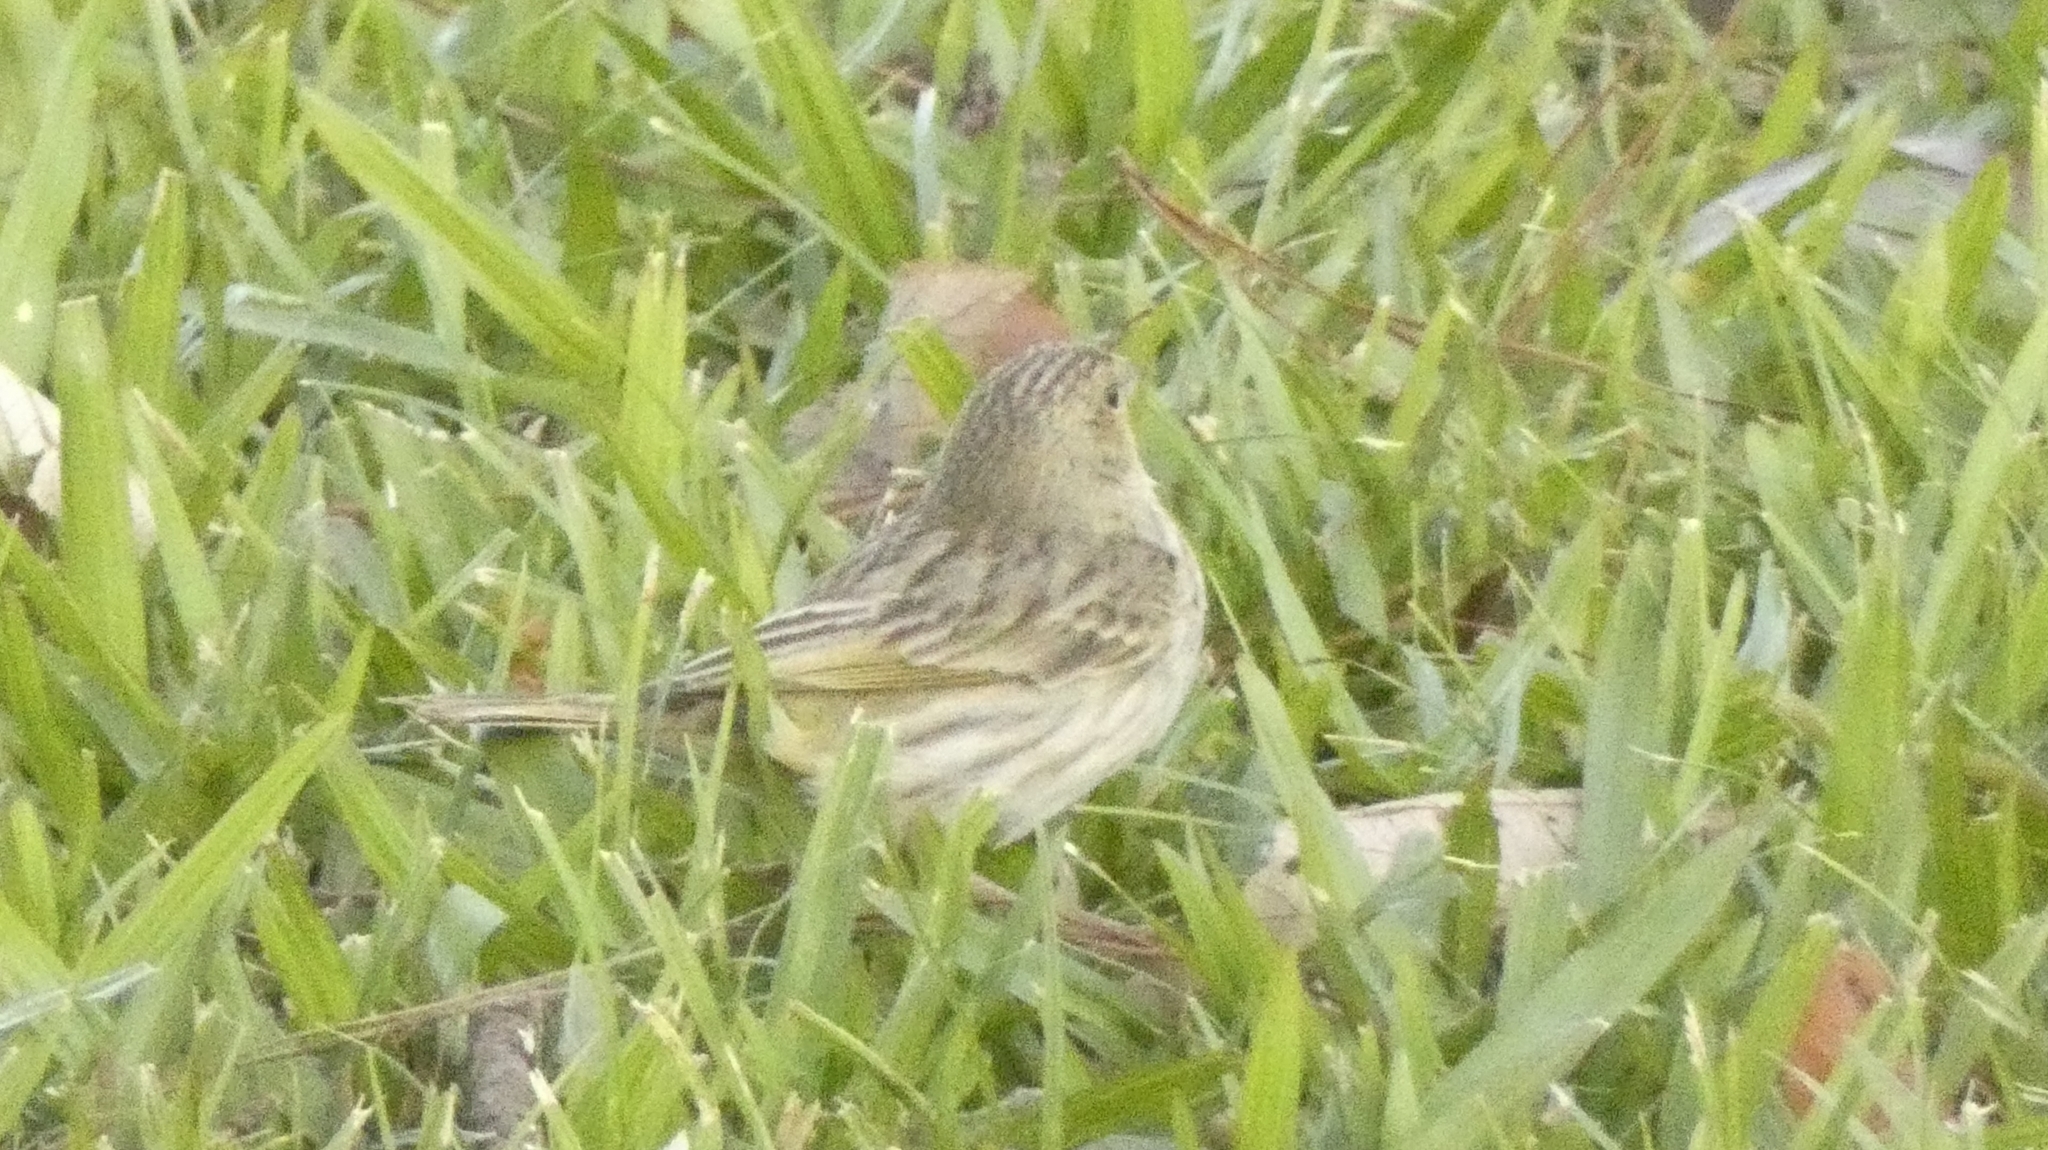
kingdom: Animalia
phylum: Chordata
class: Aves
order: Passeriformes
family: Thraupidae
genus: Sicalis
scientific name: Sicalis flaveola
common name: Saffron finch
